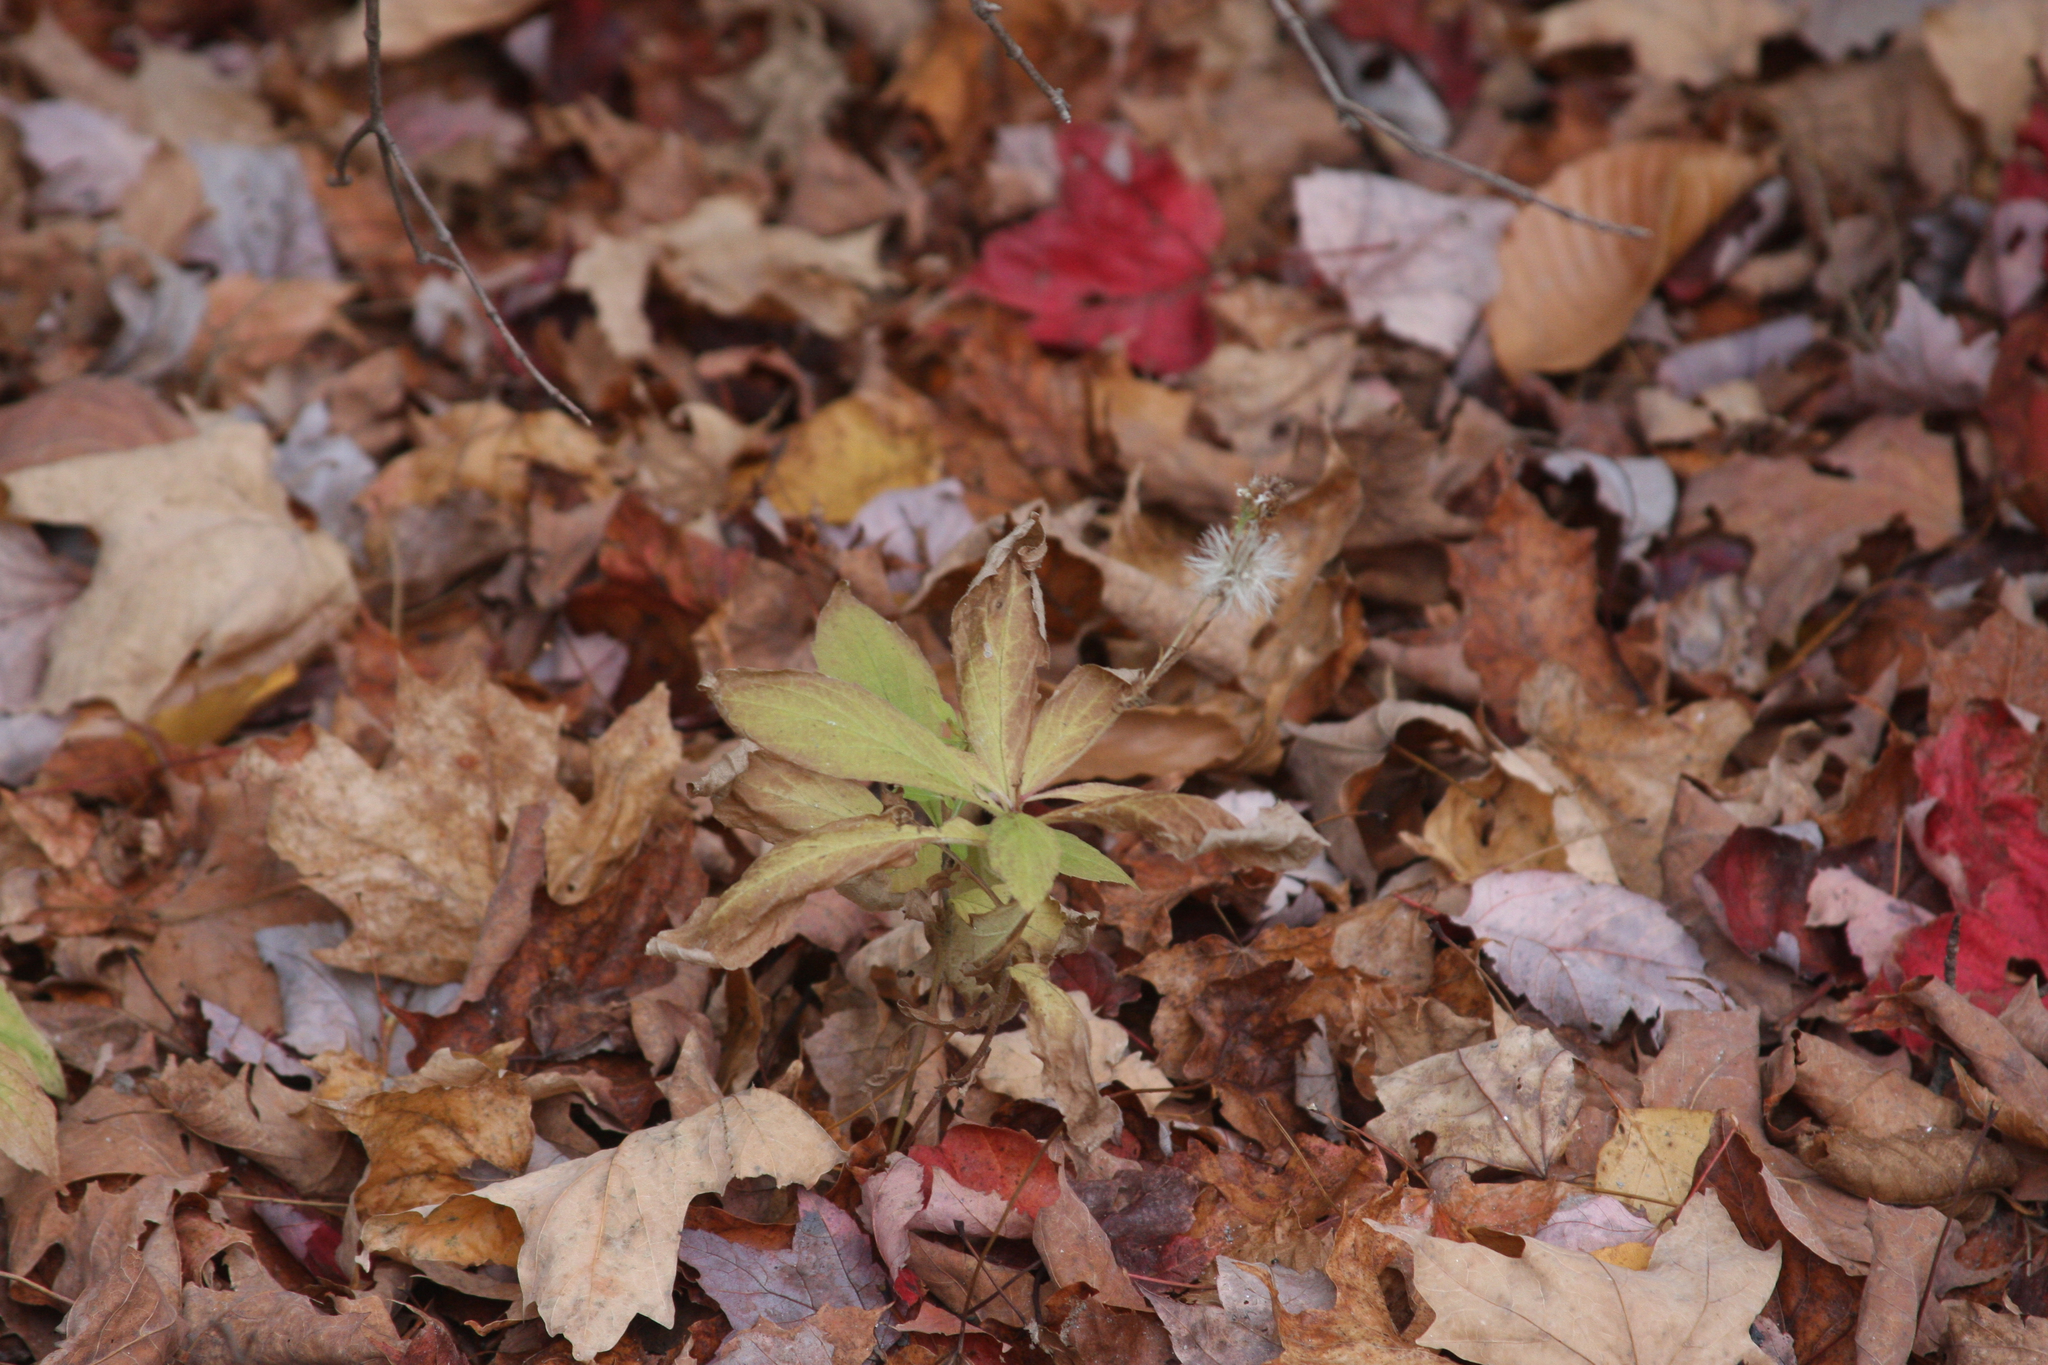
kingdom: Plantae
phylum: Tracheophyta
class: Magnoliopsida
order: Asterales
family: Asteraceae
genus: Oclemena
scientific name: Oclemena acuminata
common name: Mountain aster
